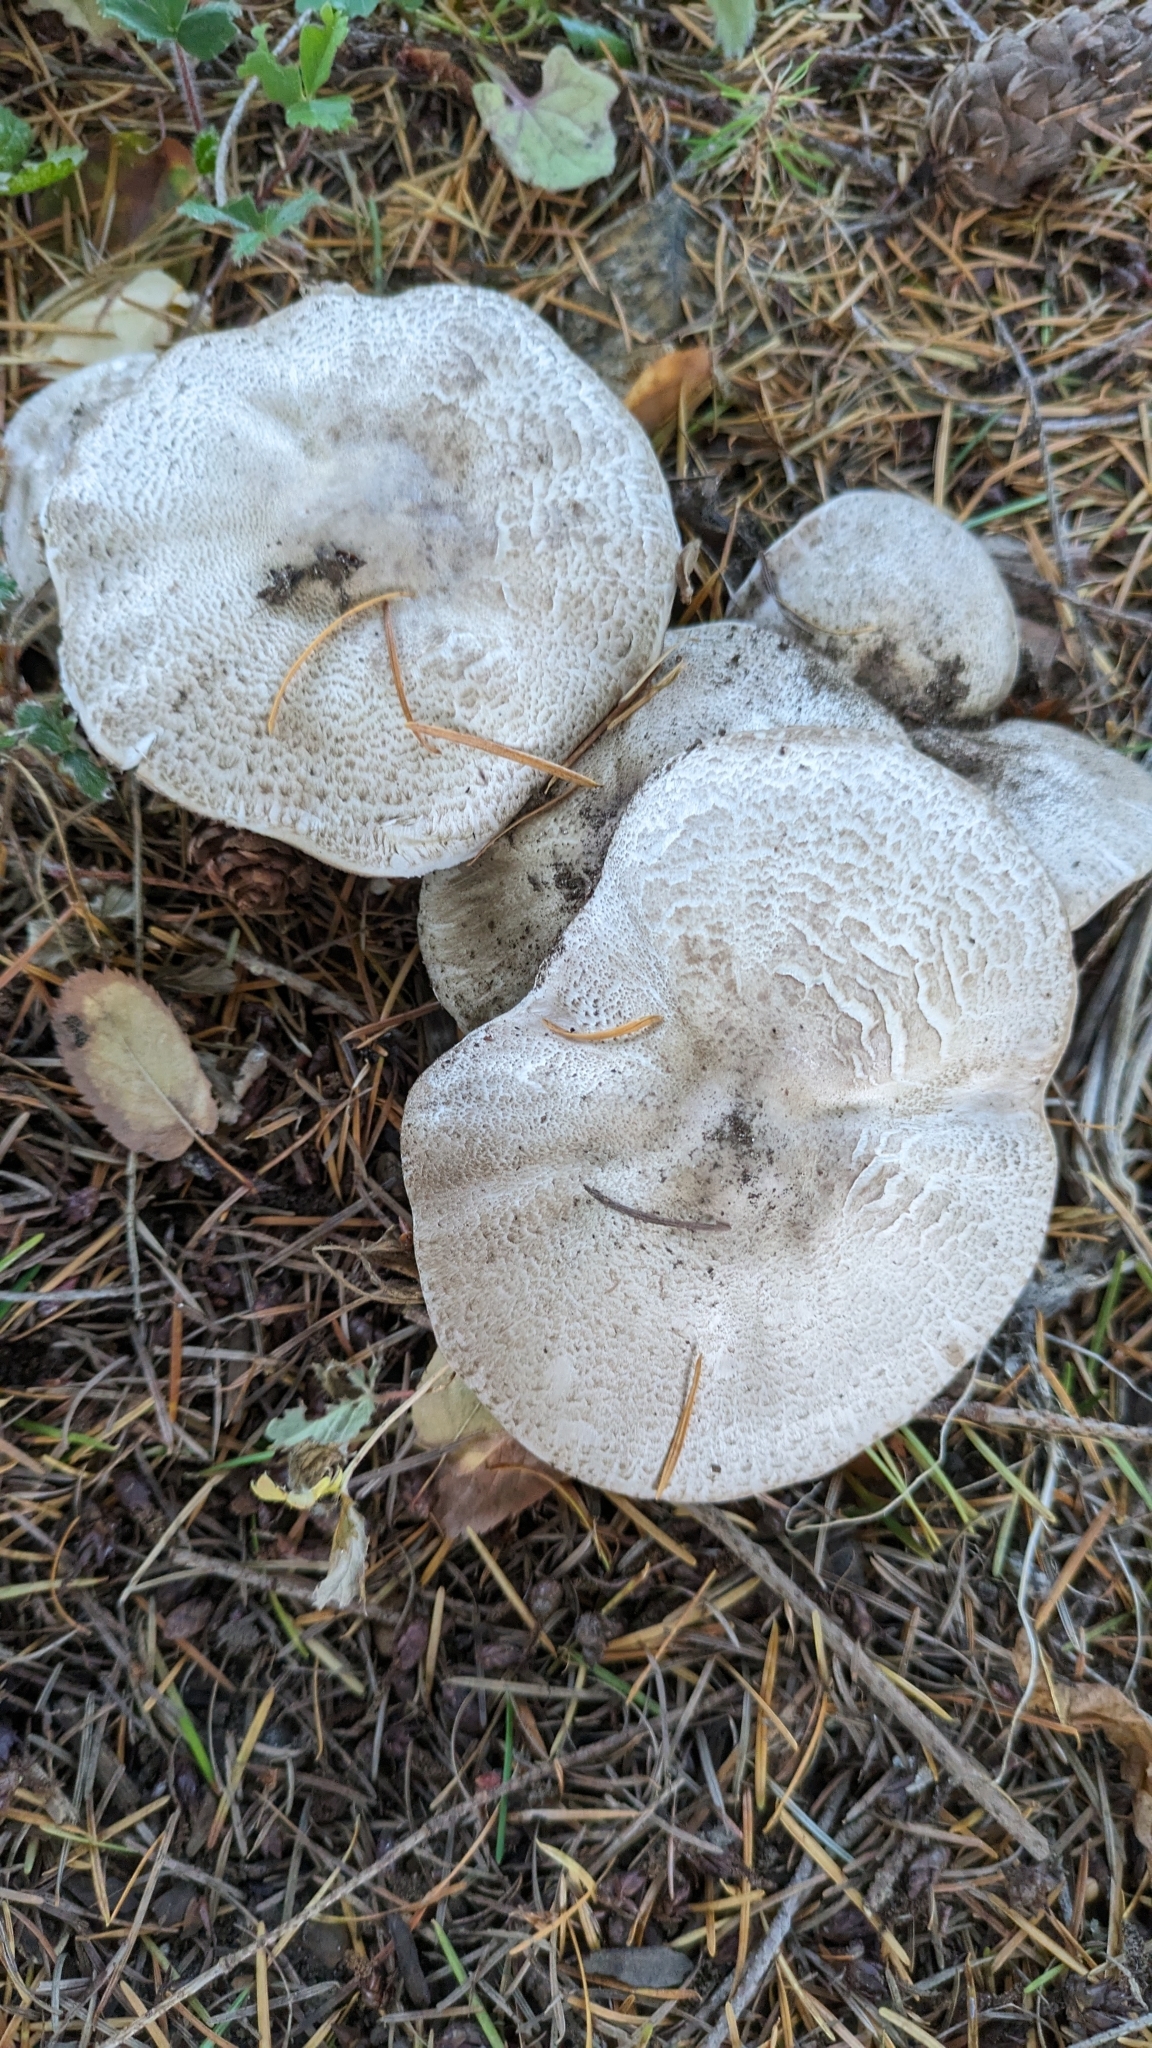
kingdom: Fungi
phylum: Basidiomycota
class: Agaricomycetes
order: Agaricales
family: Agaricaceae
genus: Agaricus
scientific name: Agaricus deardorffensis
